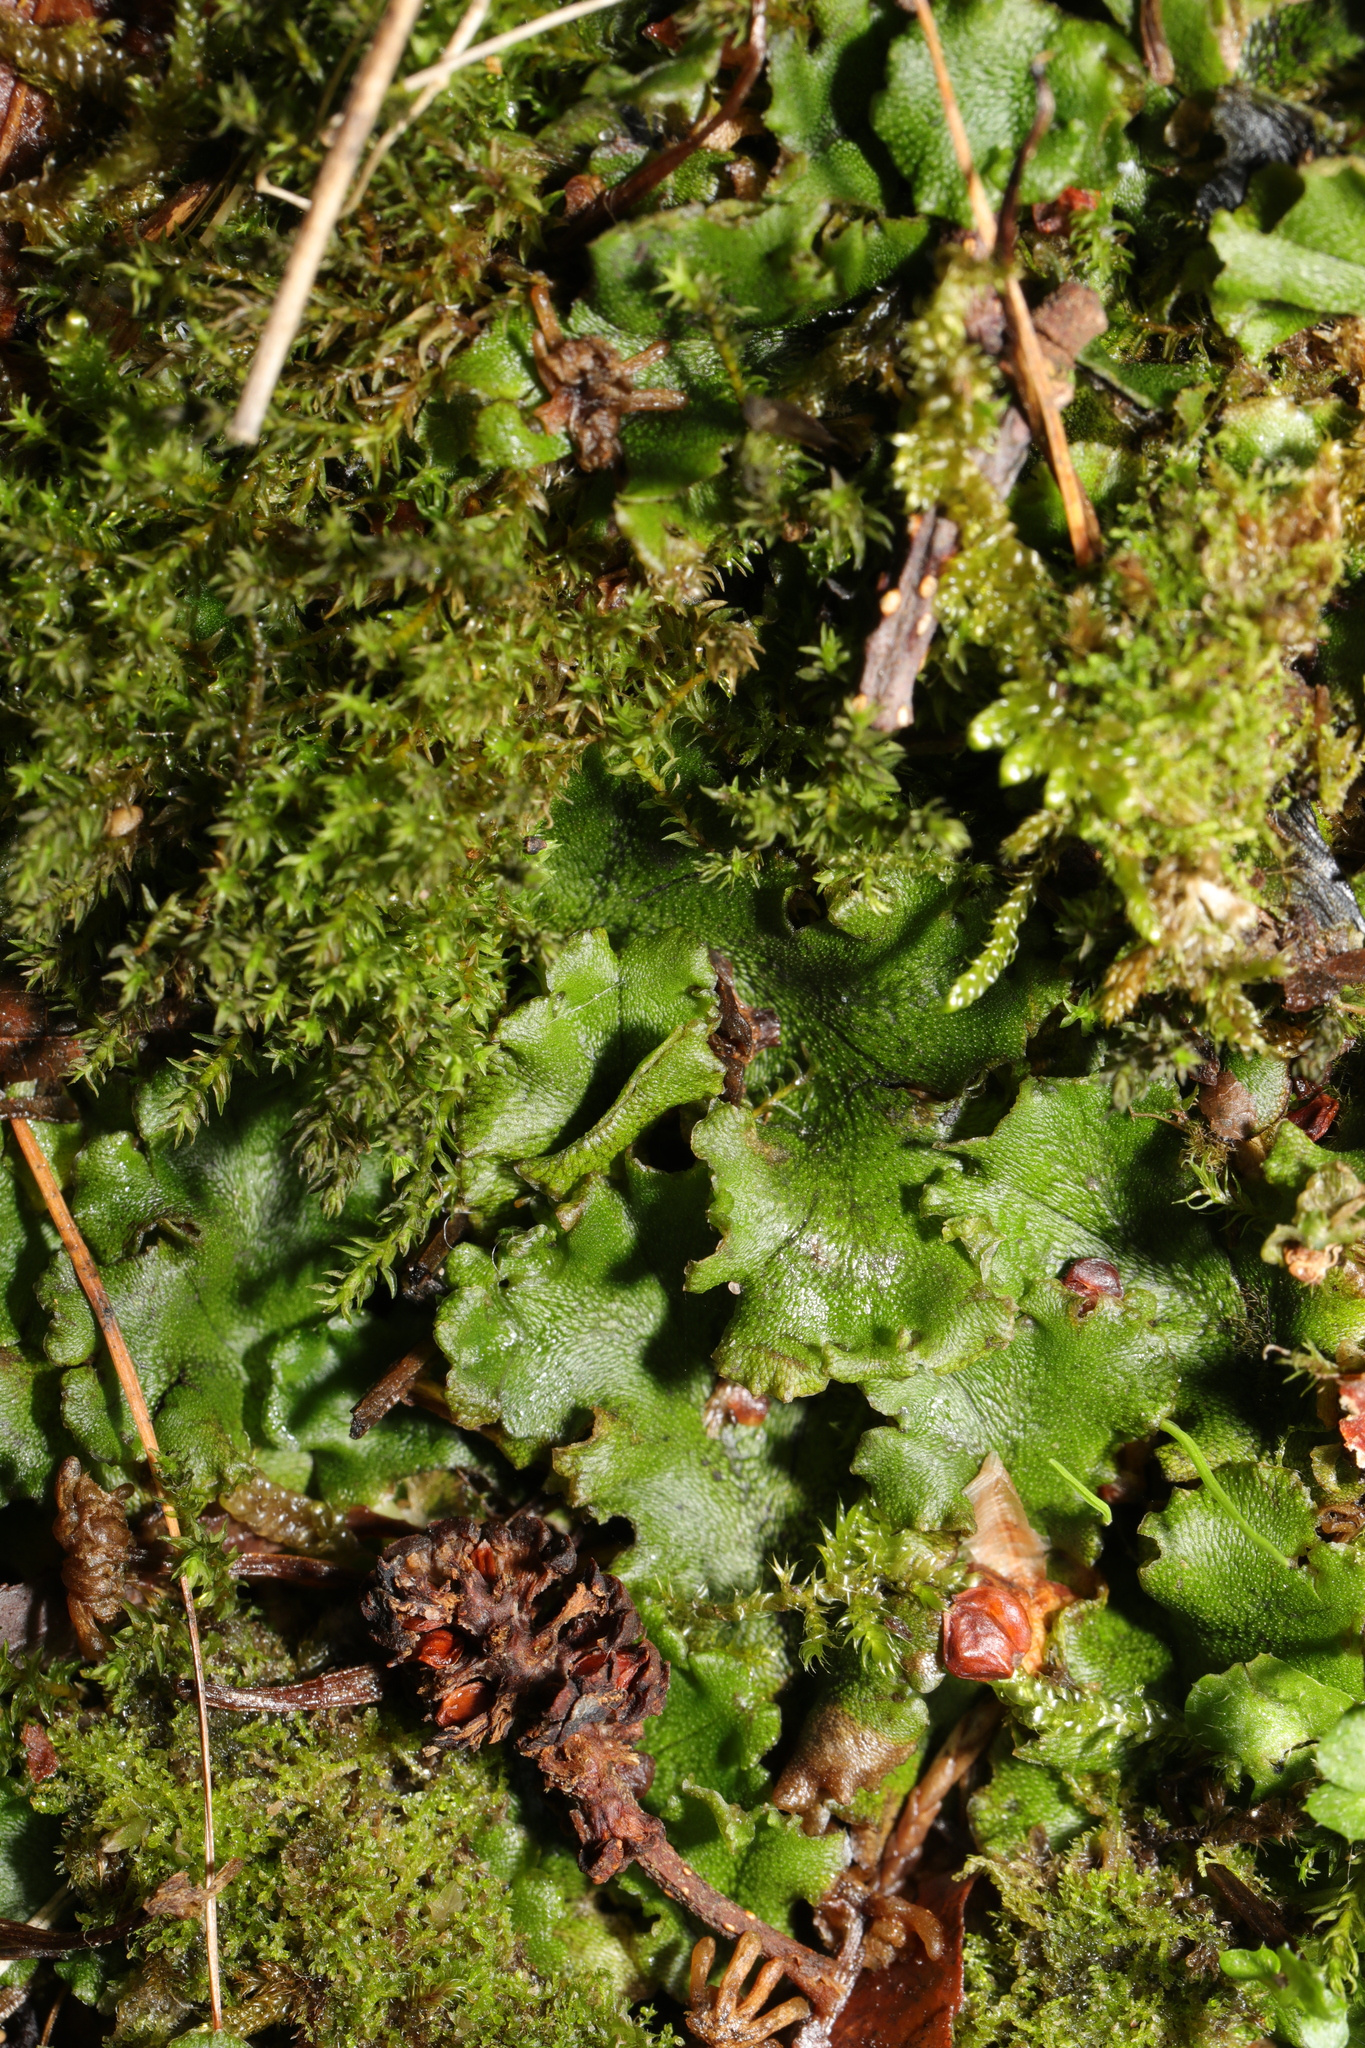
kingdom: Plantae
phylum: Marchantiophyta
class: Marchantiopsida
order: Marchantiales
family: Marchantiaceae
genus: Marchantia
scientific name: Marchantia polymorpha
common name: Common liverwort
